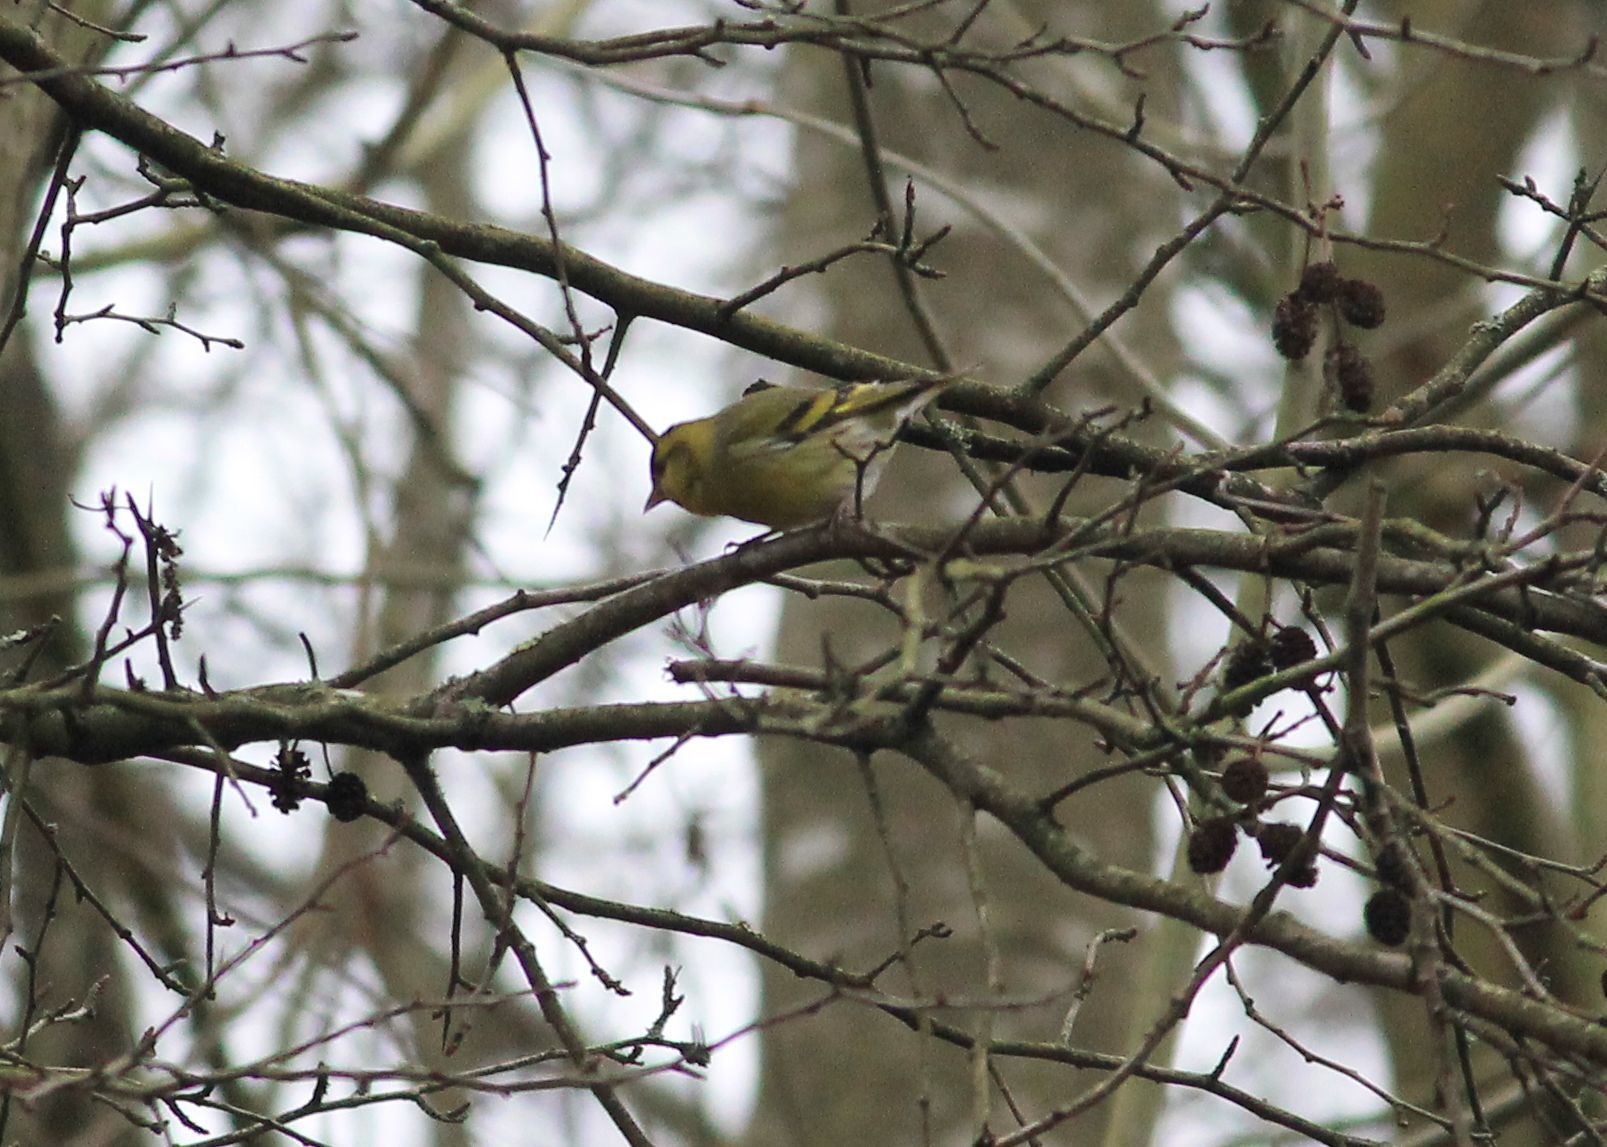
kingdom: Animalia
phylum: Chordata
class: Aves
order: Passeriformes
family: Fringillidae
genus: Spinus
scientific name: Spinus spinus
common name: Eurasian siskin
